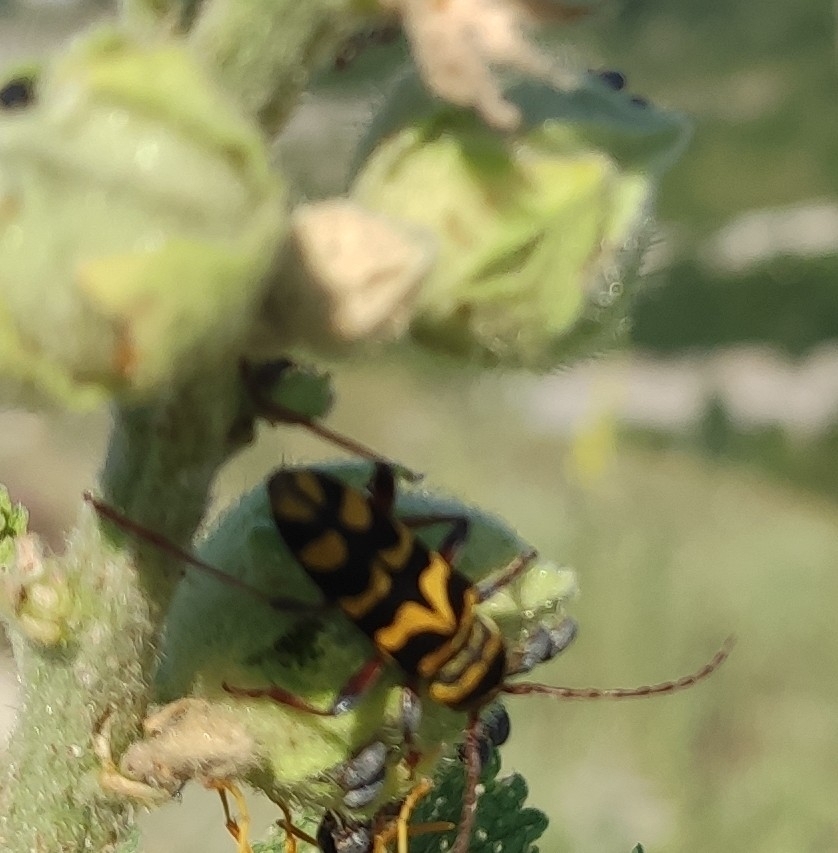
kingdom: Animalia
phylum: Arthropoda
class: Insecta
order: Coleoptera
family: Cerambycidae
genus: Neoplagionotus
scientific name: Neoplagionotus bobelayei
